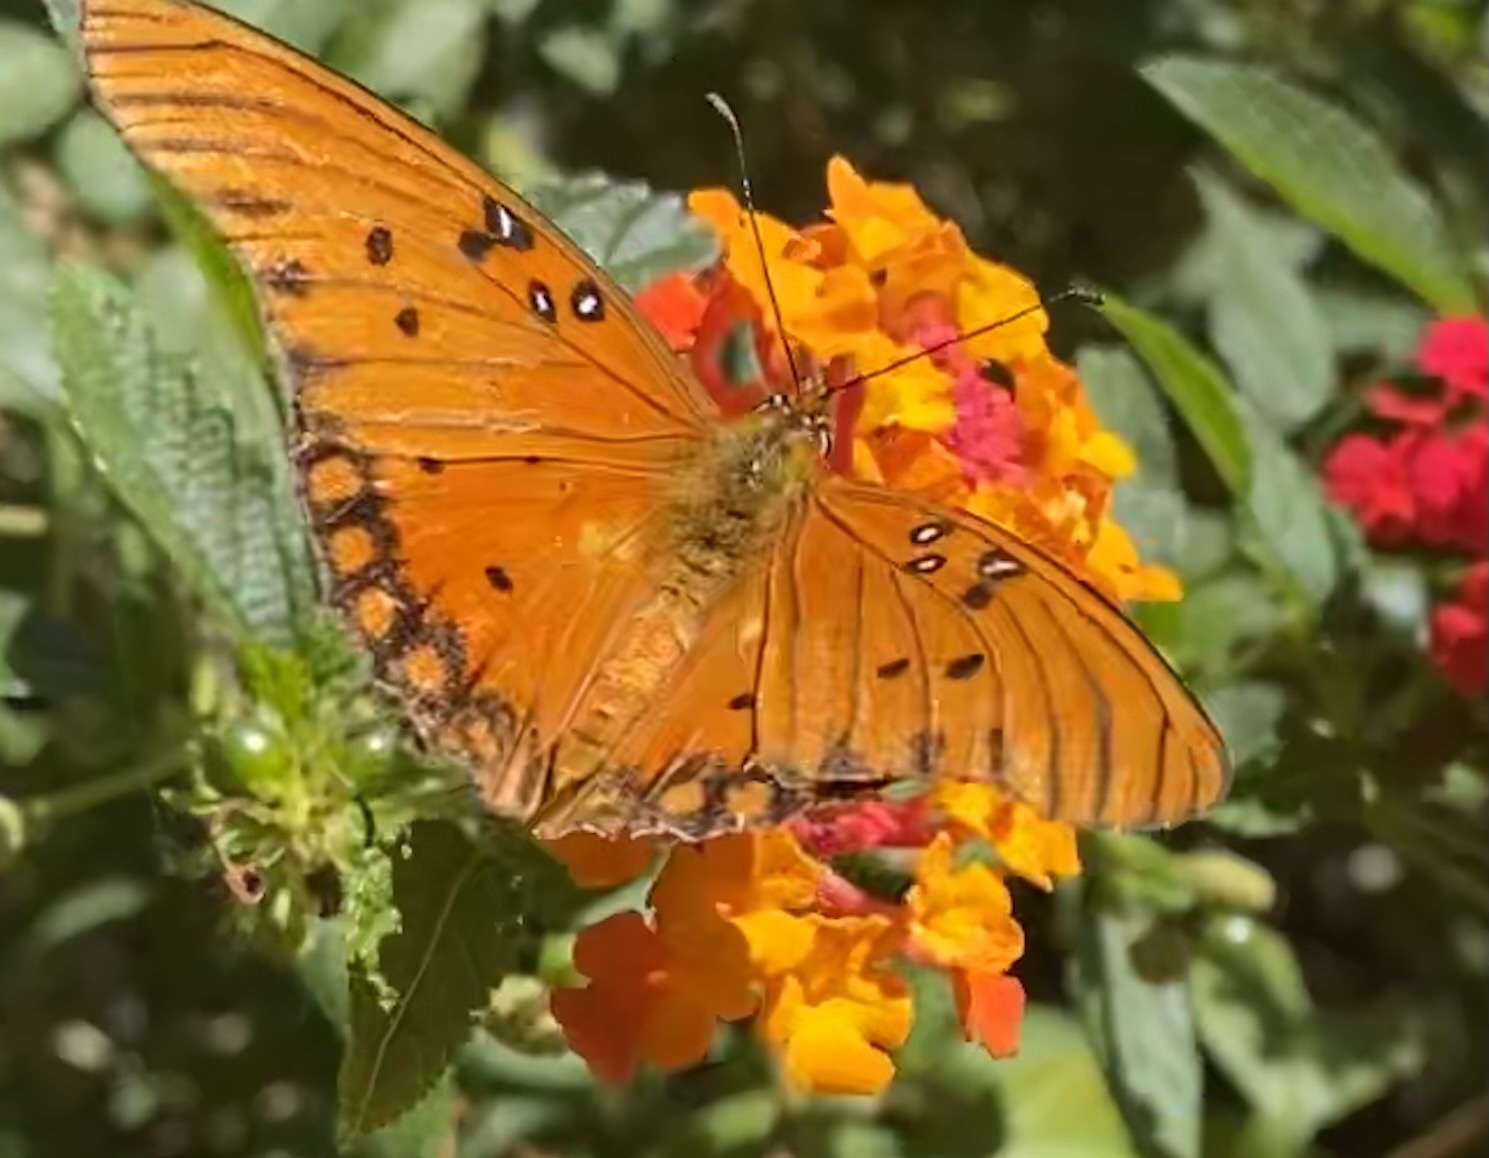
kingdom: Animalia
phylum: Arthropoda
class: Insecta
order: Lepidoptera
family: Nymphalidae
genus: Dione
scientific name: Dione vanillae
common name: Gulf fritillary
